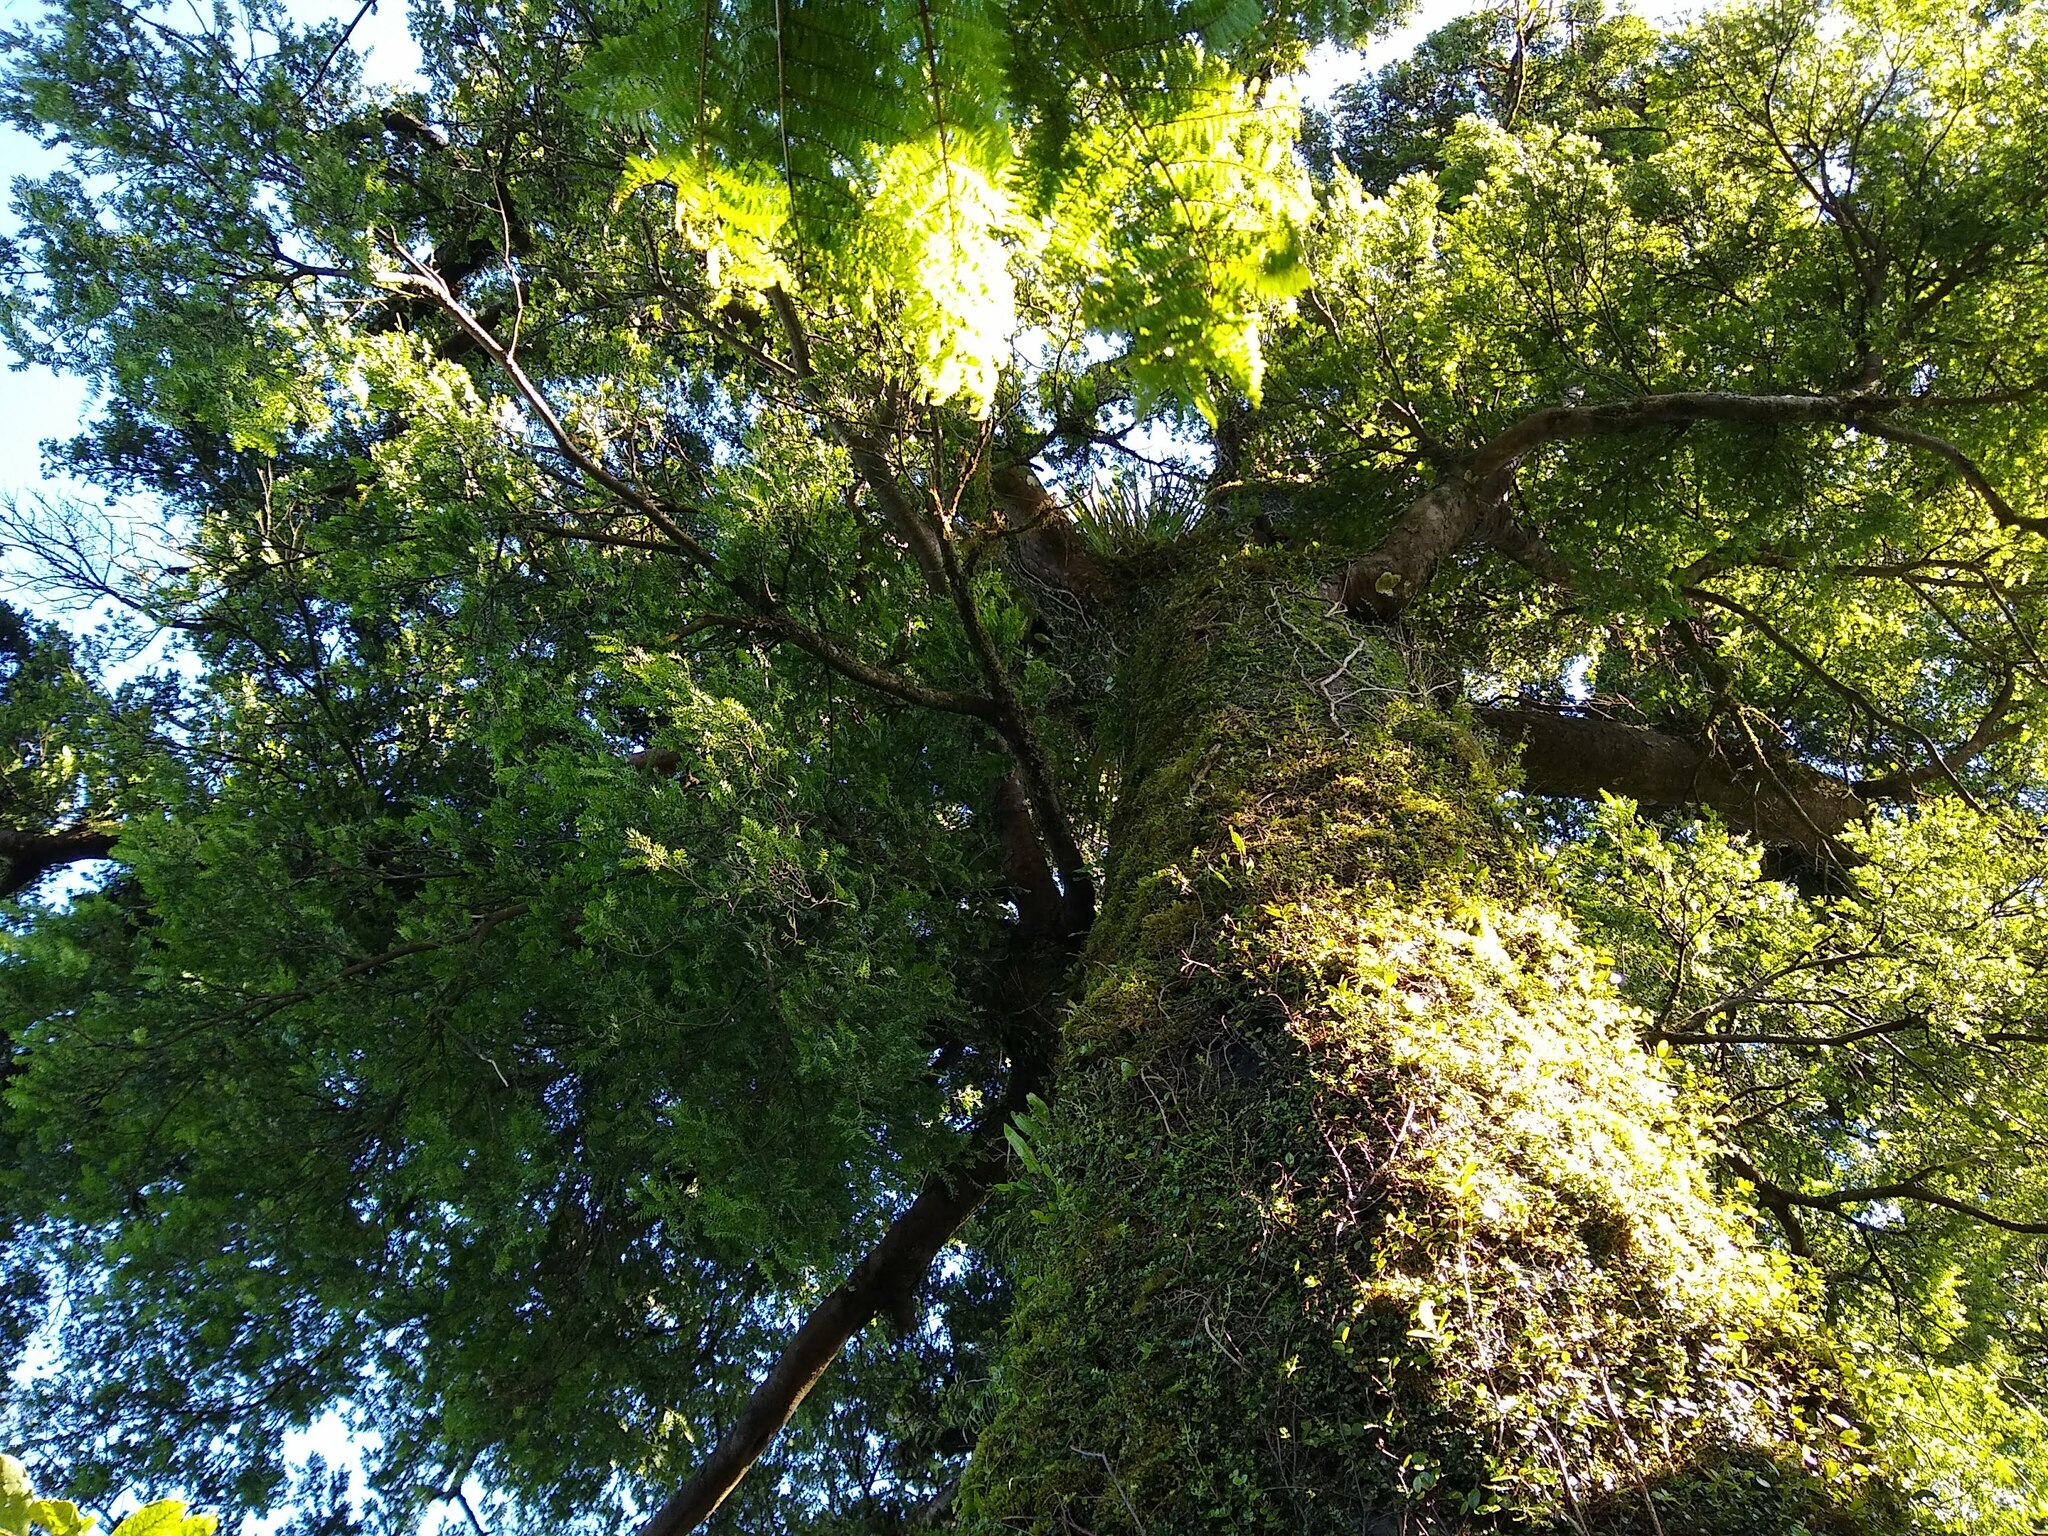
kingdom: Plantae
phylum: Tracheophyta
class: Pinopsida
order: Pinales
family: Podocarpaceae
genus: Prumnopitys
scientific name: Prumnopitys ferruginea
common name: Brown pine
